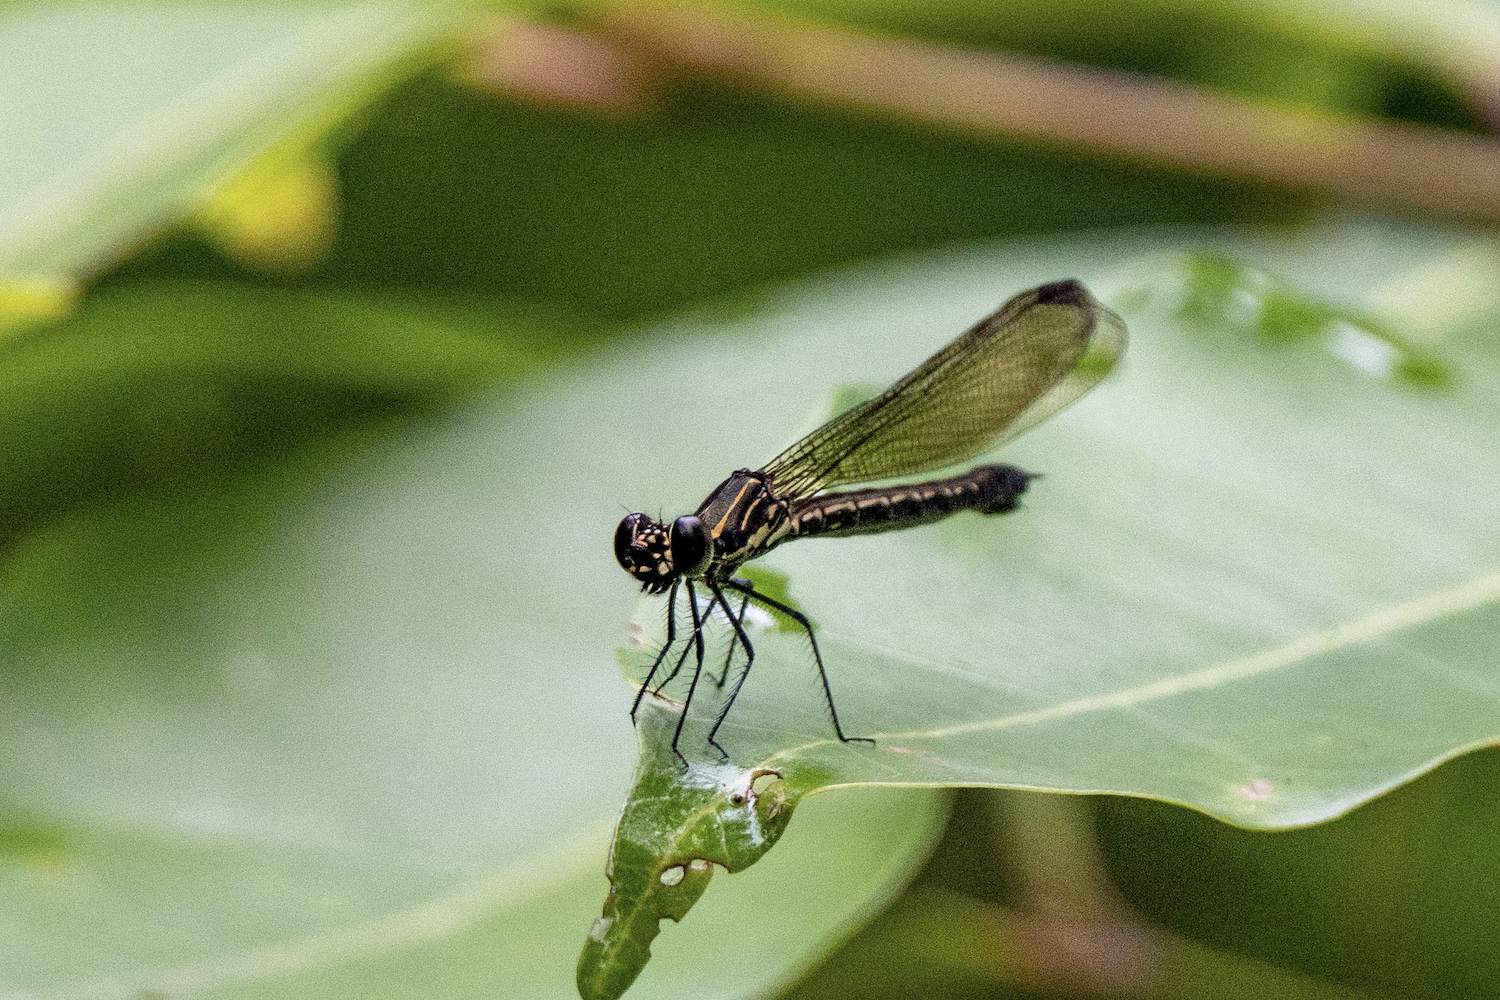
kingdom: Animalia
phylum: Arthropoda
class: Insecta
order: Odonata
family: Chlorocyphidae
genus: Heliocypha
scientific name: Heliocypha perforata
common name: Common blue jewel
